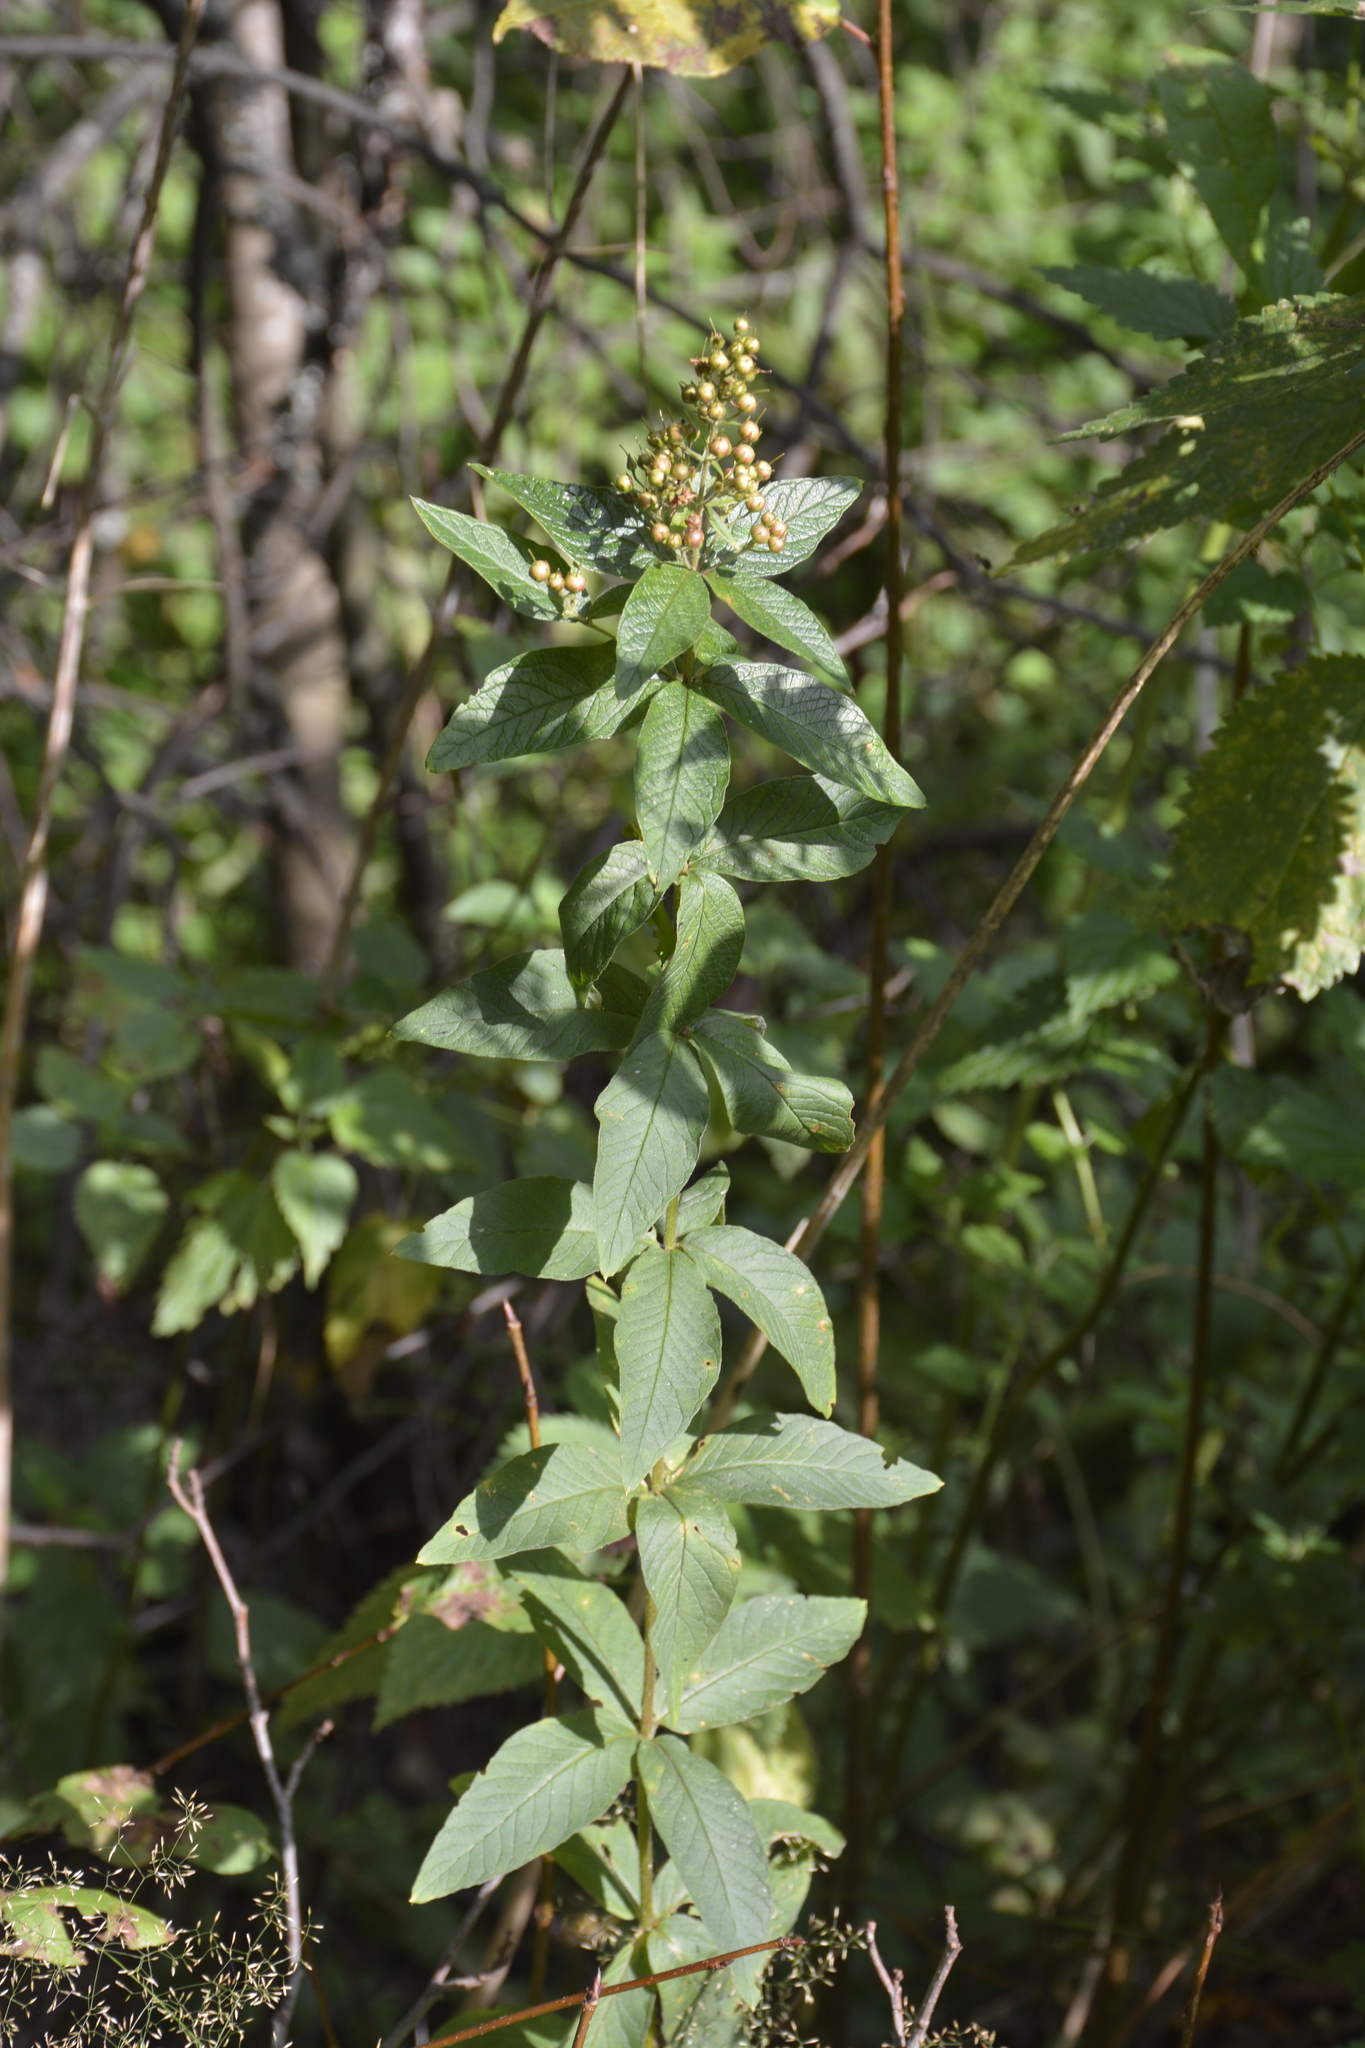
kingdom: Plantae
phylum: Tracheophyta
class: Magnoliopsida
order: Ericales
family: Primulaceae
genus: Lysimachia
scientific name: Lysimachia vulgaris
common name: Yellow loosestrife
